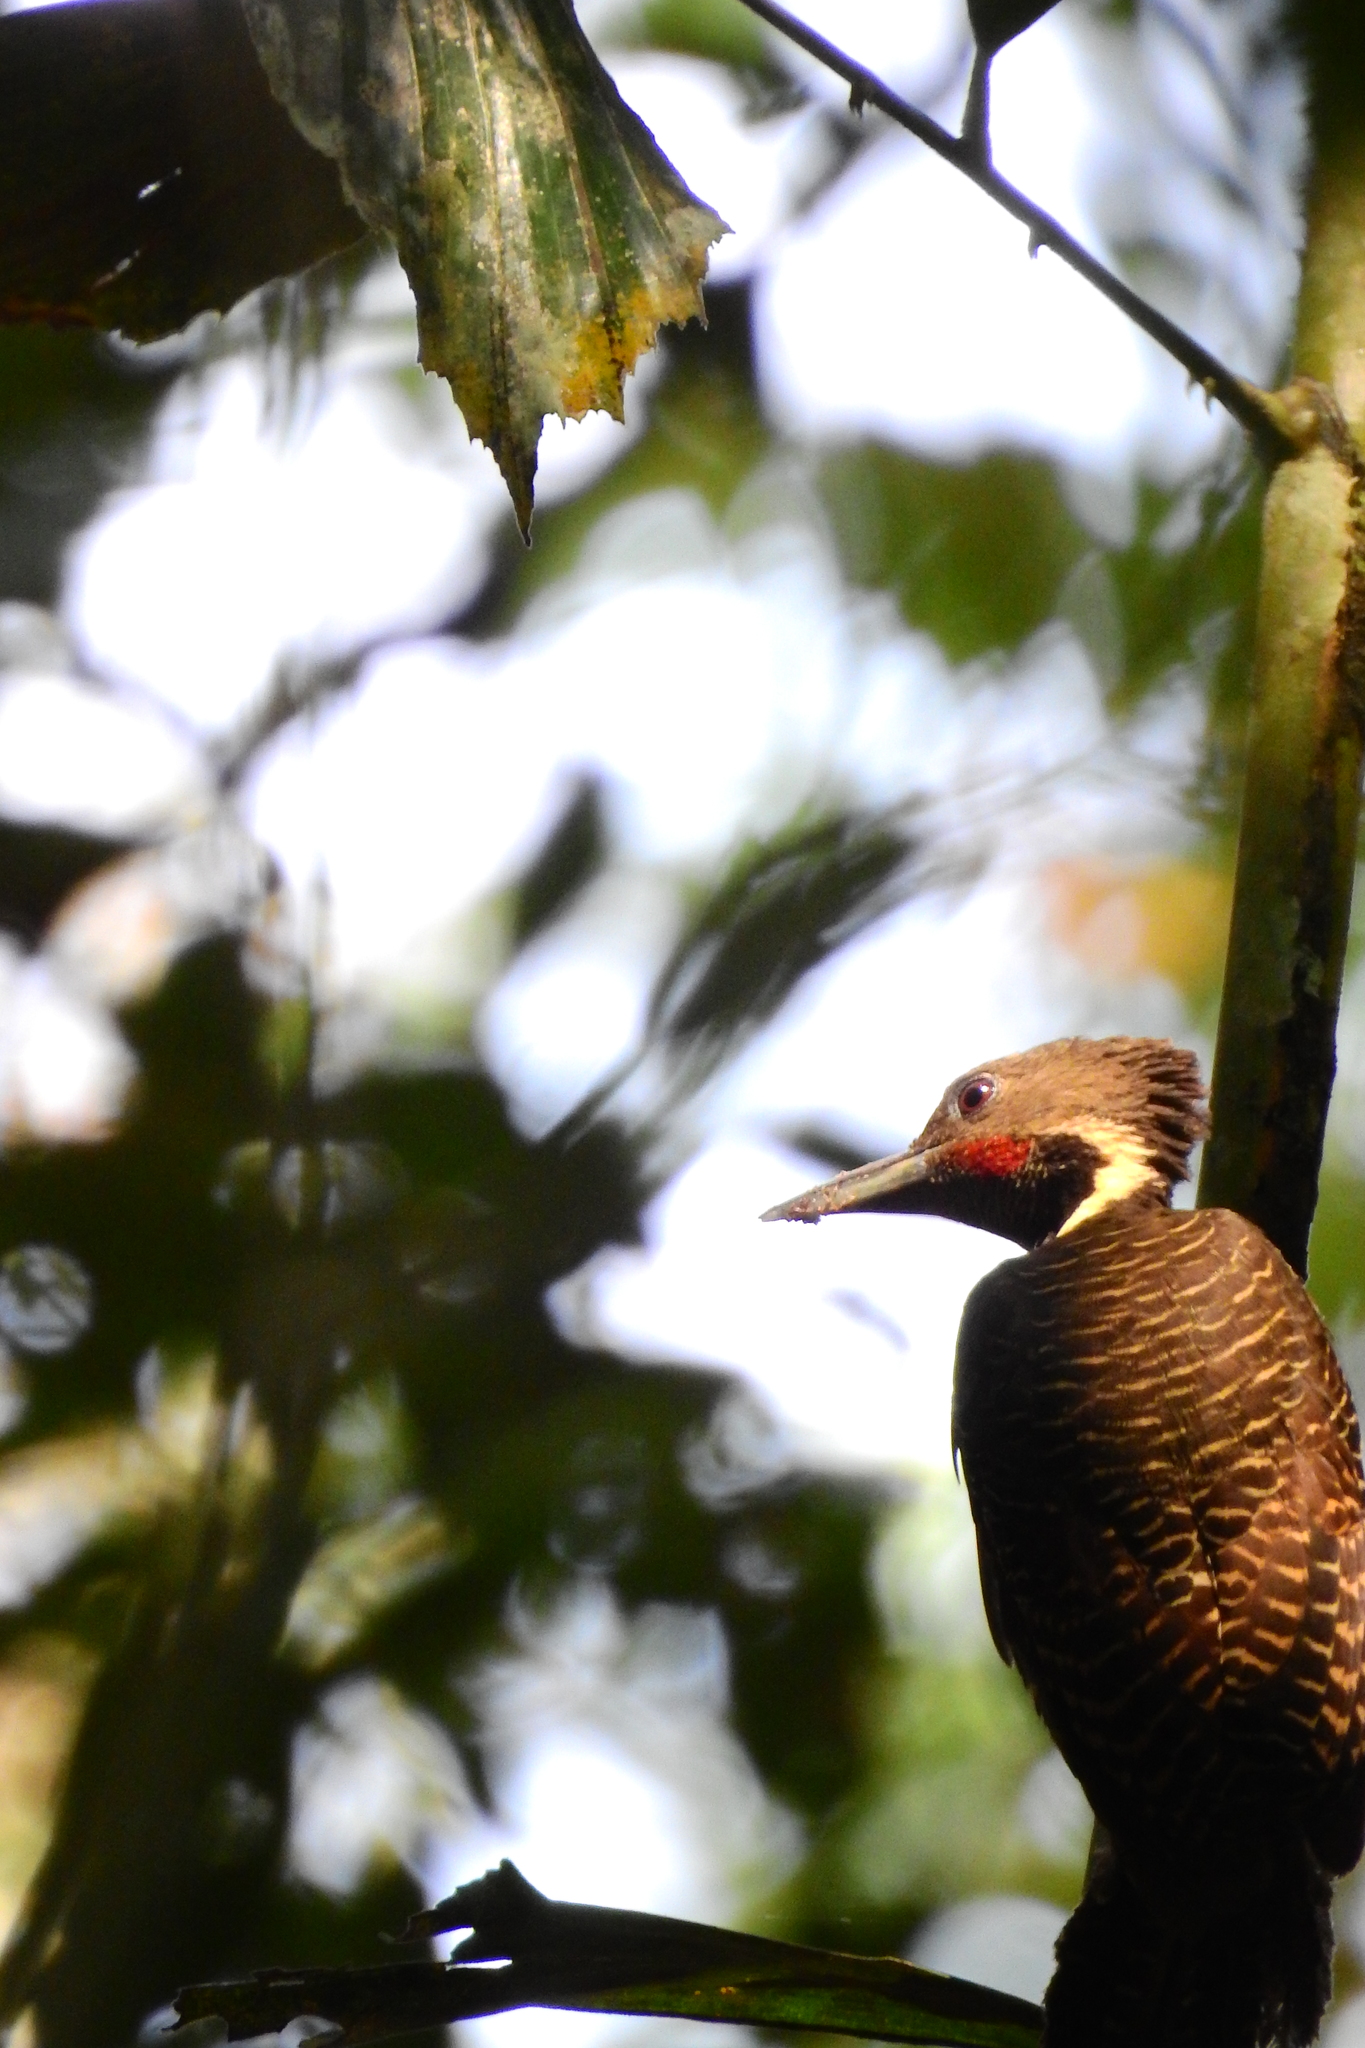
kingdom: Animalia
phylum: Chordata
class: Aves
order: Piciformes
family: Picidae
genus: Meiglyptes
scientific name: Meiglyptes tukki
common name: Buff-necked woodpecker
